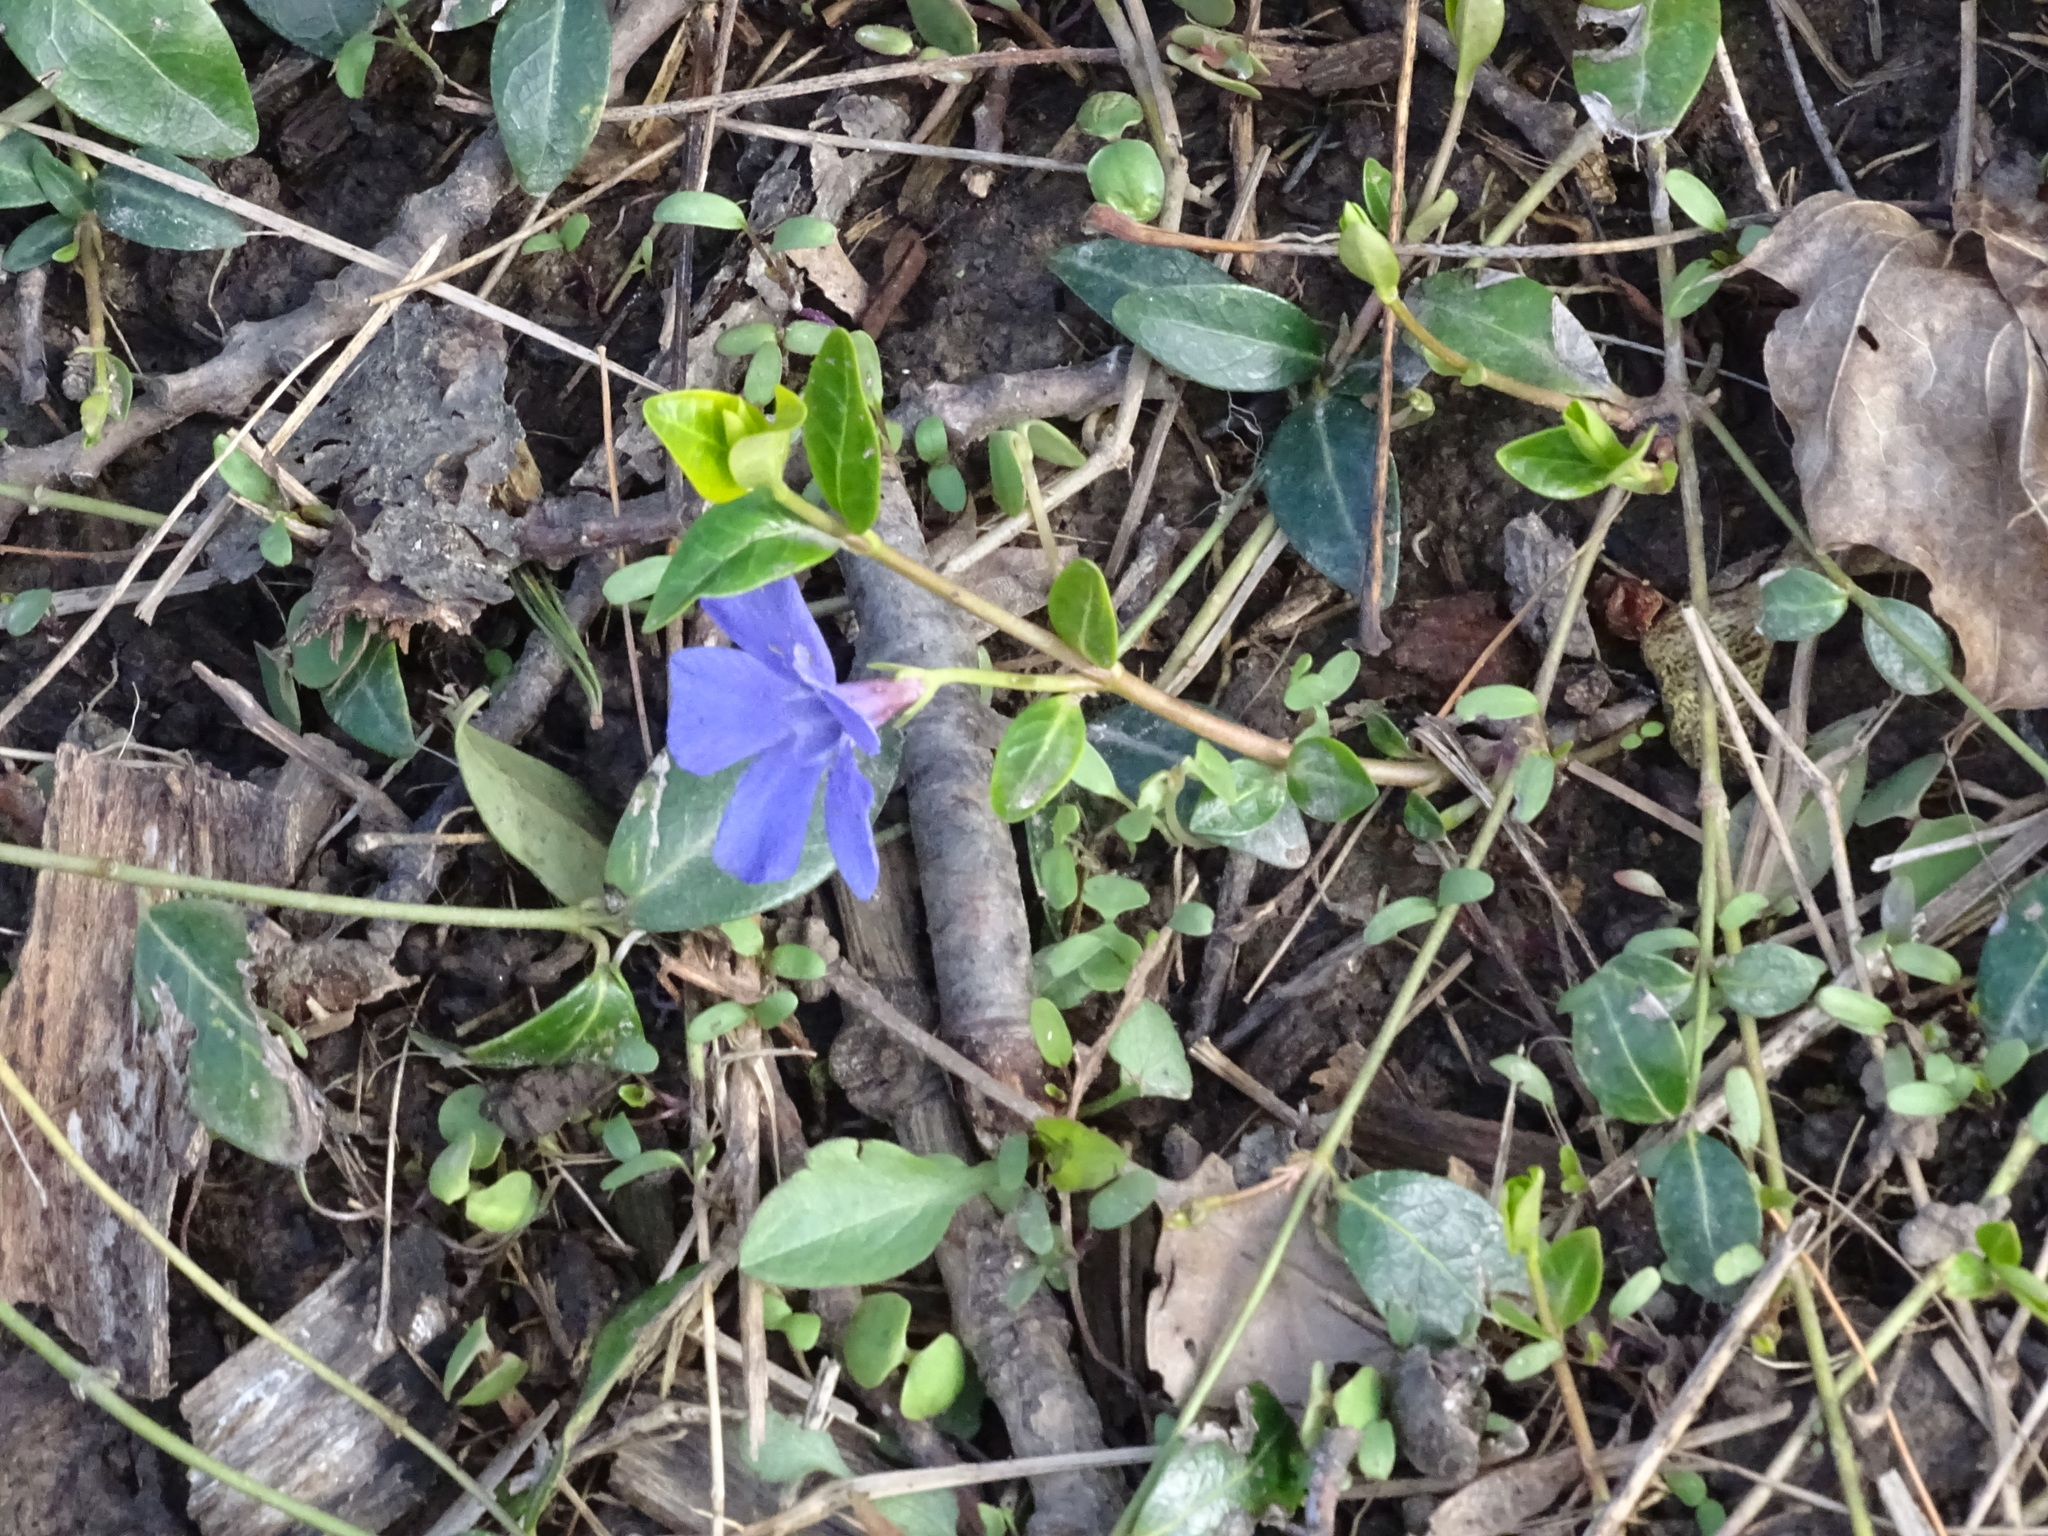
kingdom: Plantae
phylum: Tracheophyta
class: Magnoliopsida
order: Gentianales
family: Apocynaceae
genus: Vinca
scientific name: Vinca minor
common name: Lesser periwinkle
